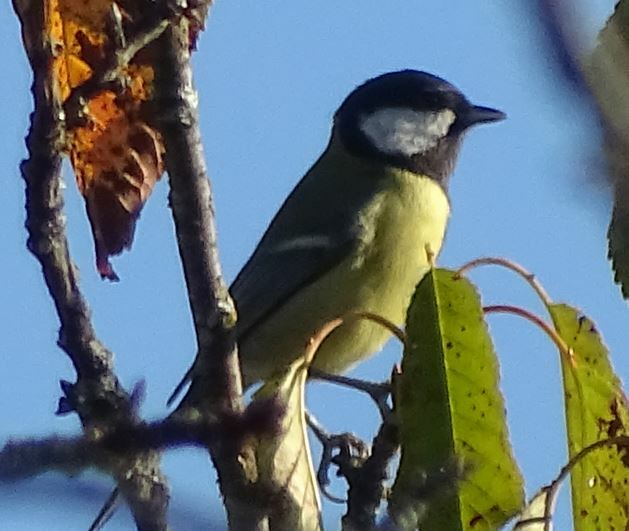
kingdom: Animalia
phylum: Chordata
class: Aves
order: Passeriformes
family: Paridae
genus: Parus
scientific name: Parus major
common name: Great tit
